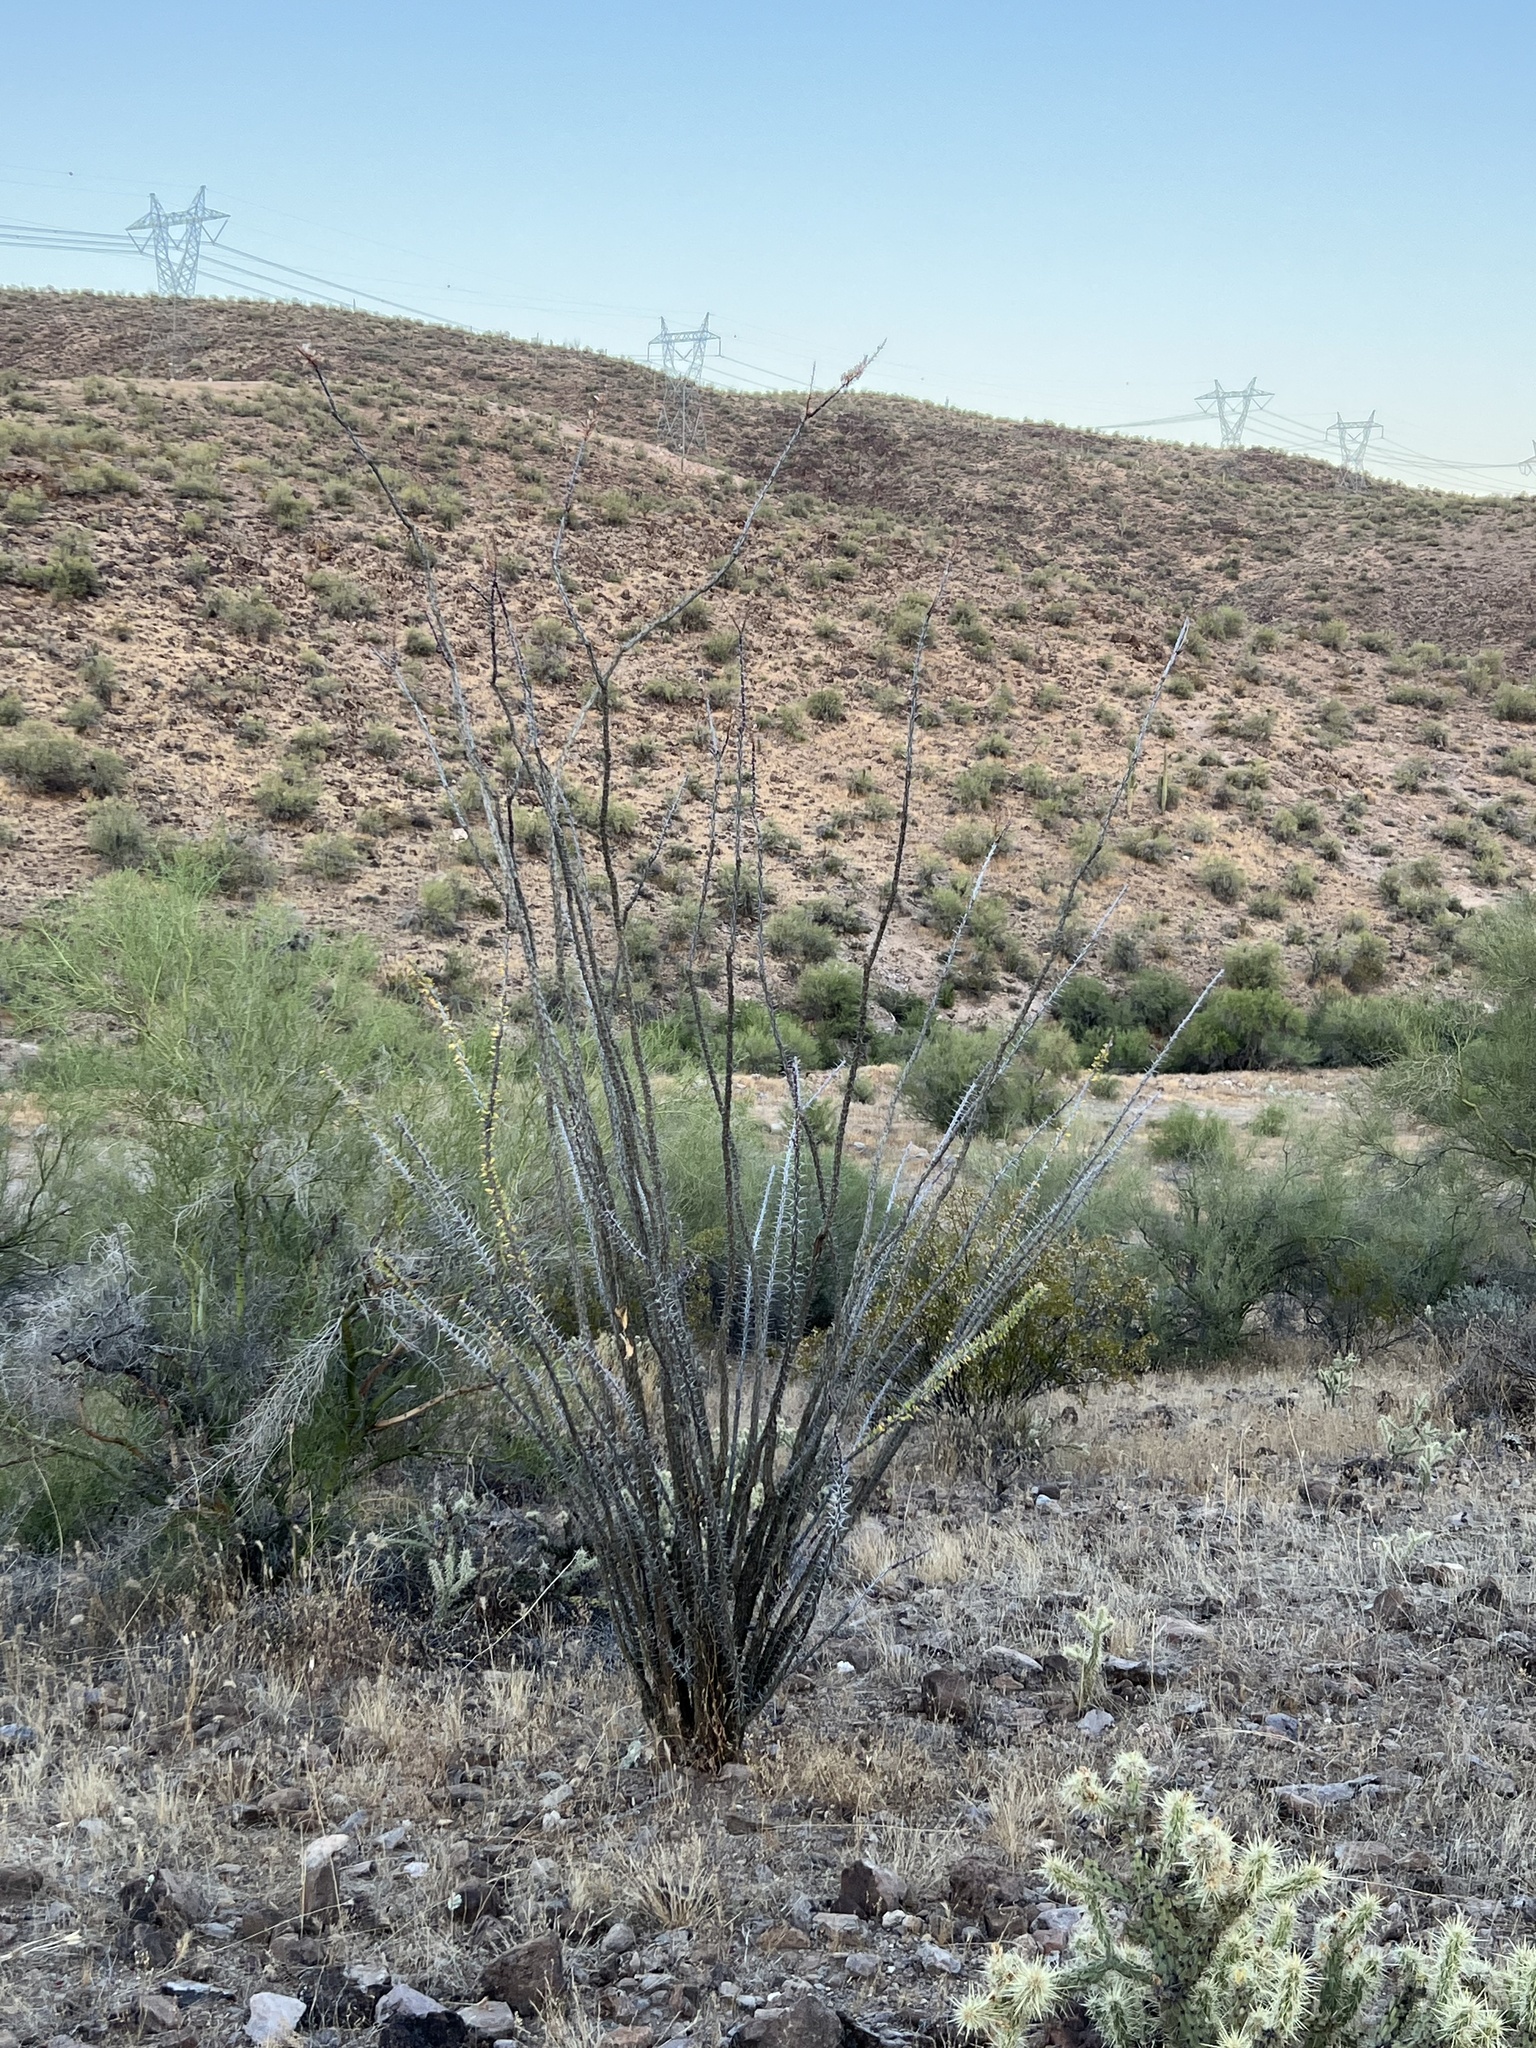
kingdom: Plantae
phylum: Tracheophyta
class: Magnoliopsida
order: Ericales
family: Fouquieriaceae
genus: Fouquieria
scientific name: Fouquieria splendens
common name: Vine-cactus
